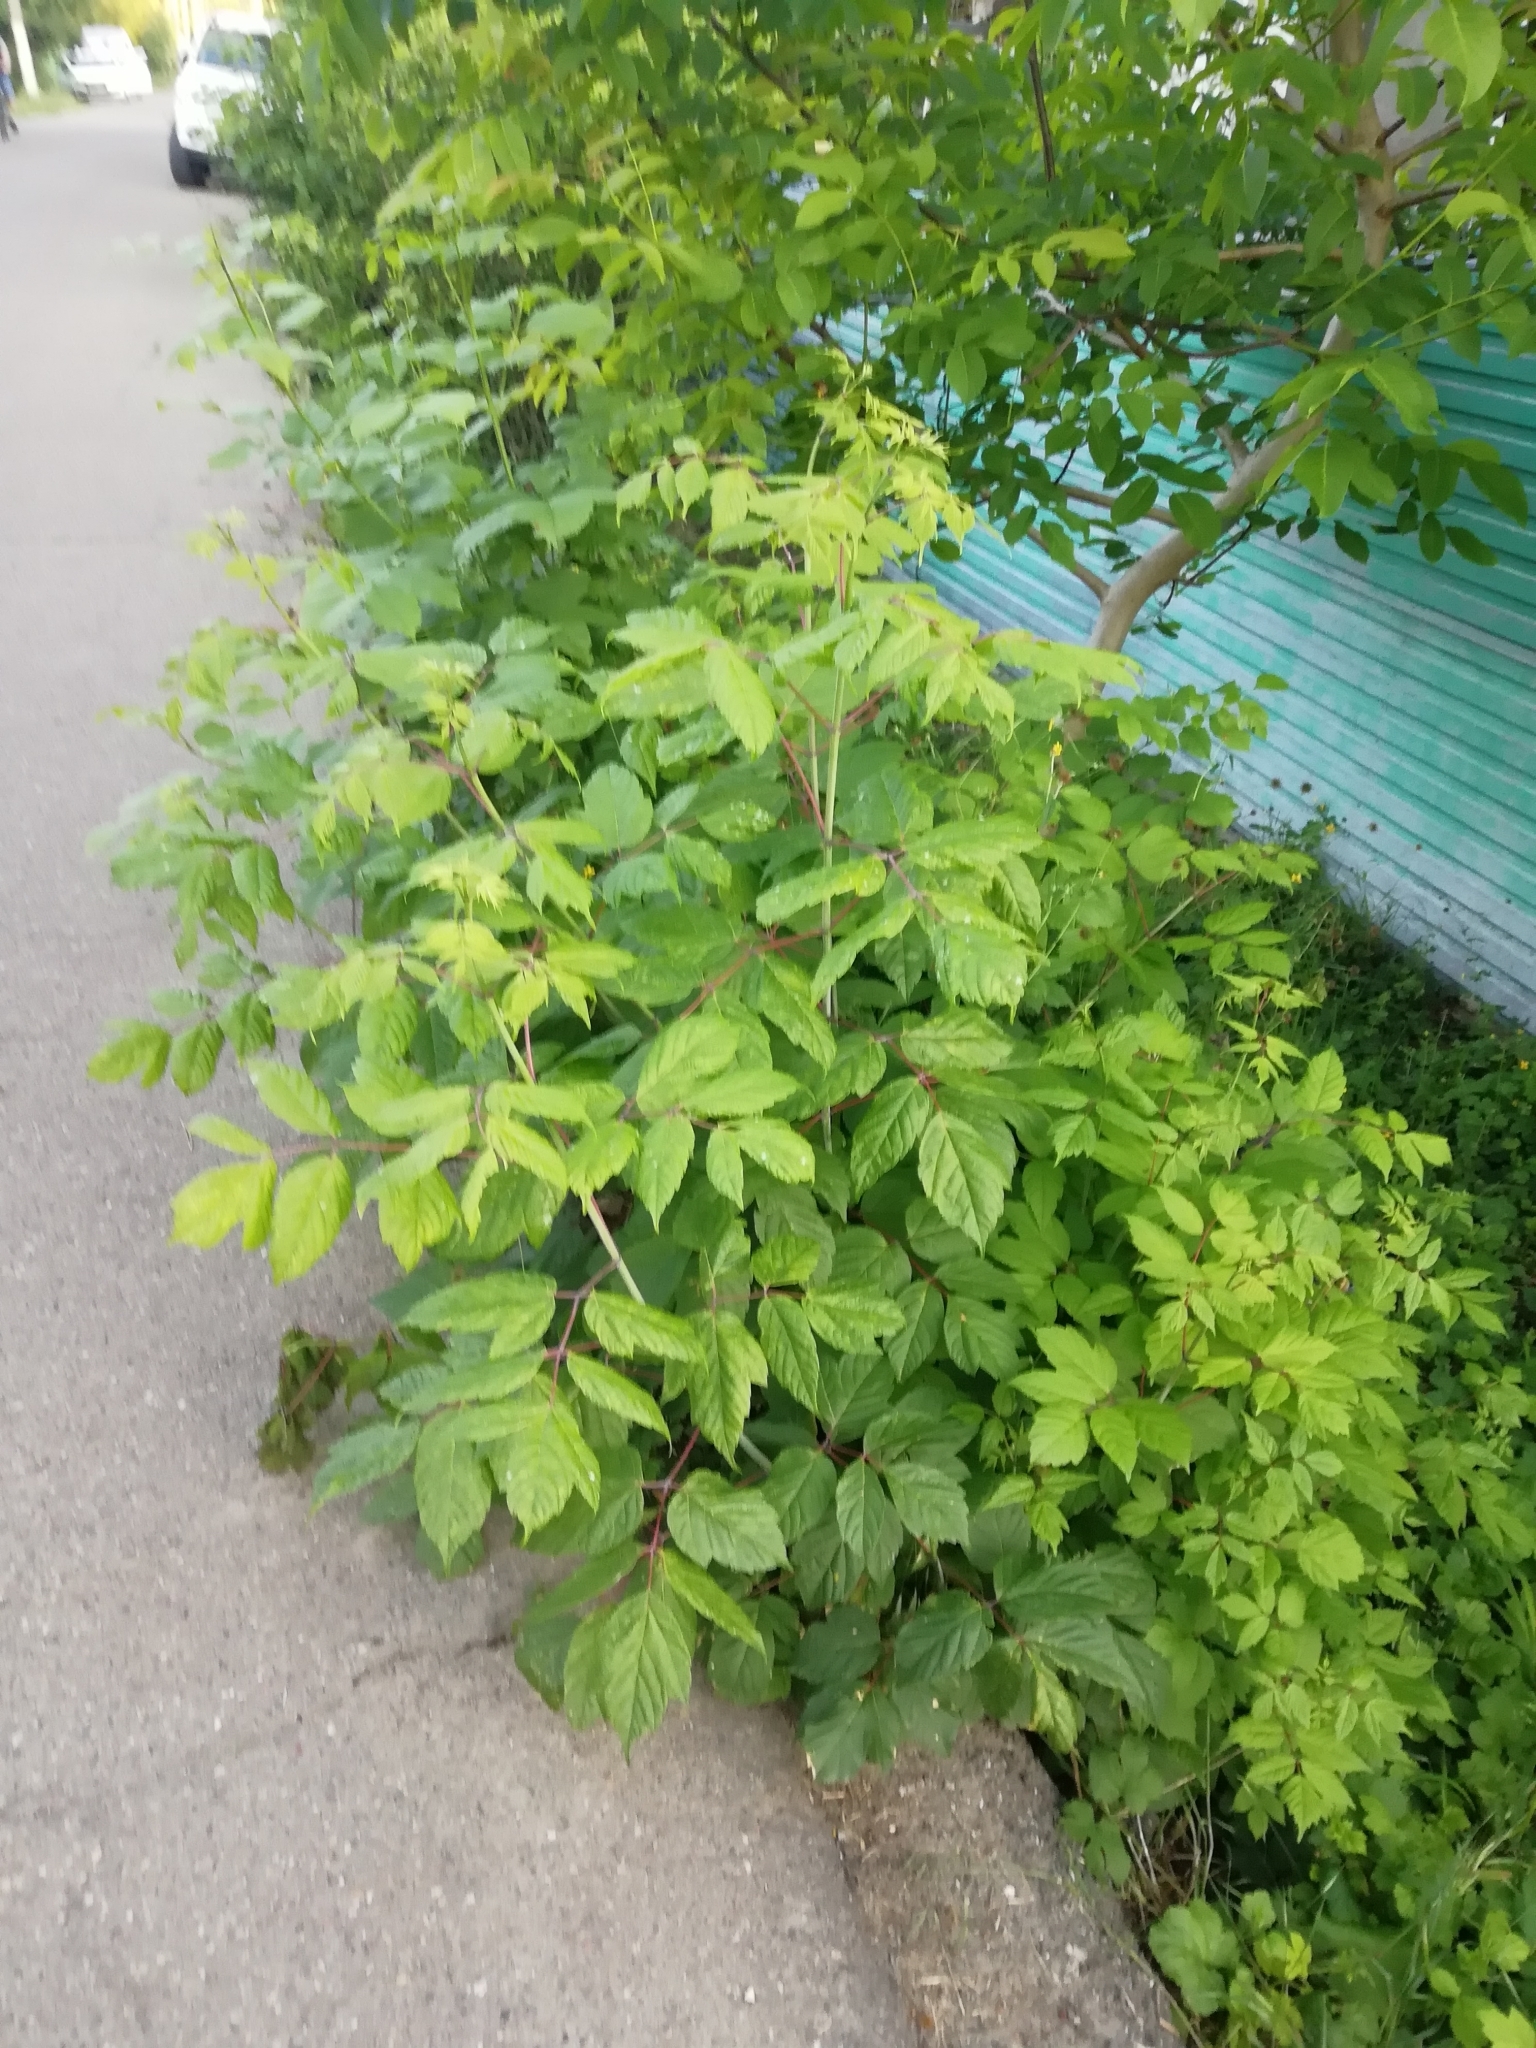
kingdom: Plantae
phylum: Tracheophyta
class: Magnoliopsida
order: Sapindales
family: Sapindaceae
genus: Acer
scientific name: Acer negundo
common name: Ashleaf maple
